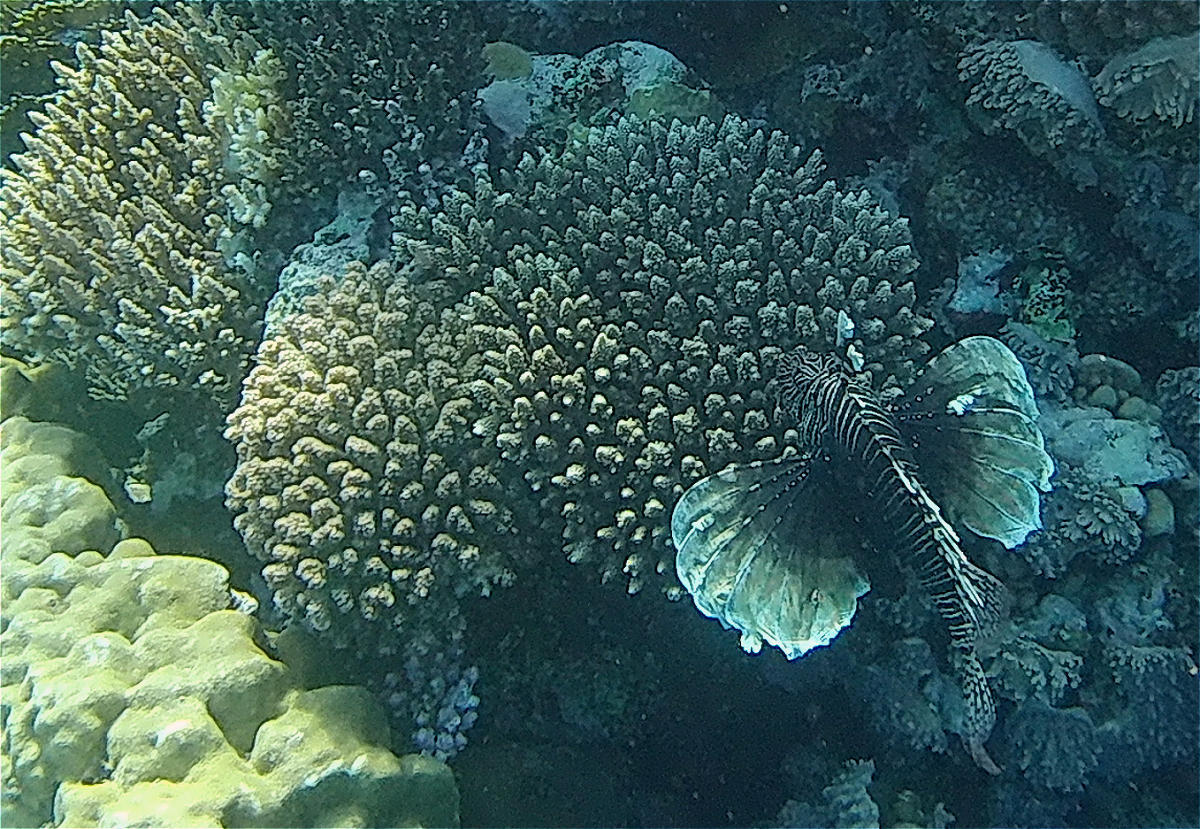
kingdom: Animalia
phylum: Chordata
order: Scorpaeniformes
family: Scorpaenidae
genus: Pterois
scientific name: Pterois miles
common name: Devil firefish
